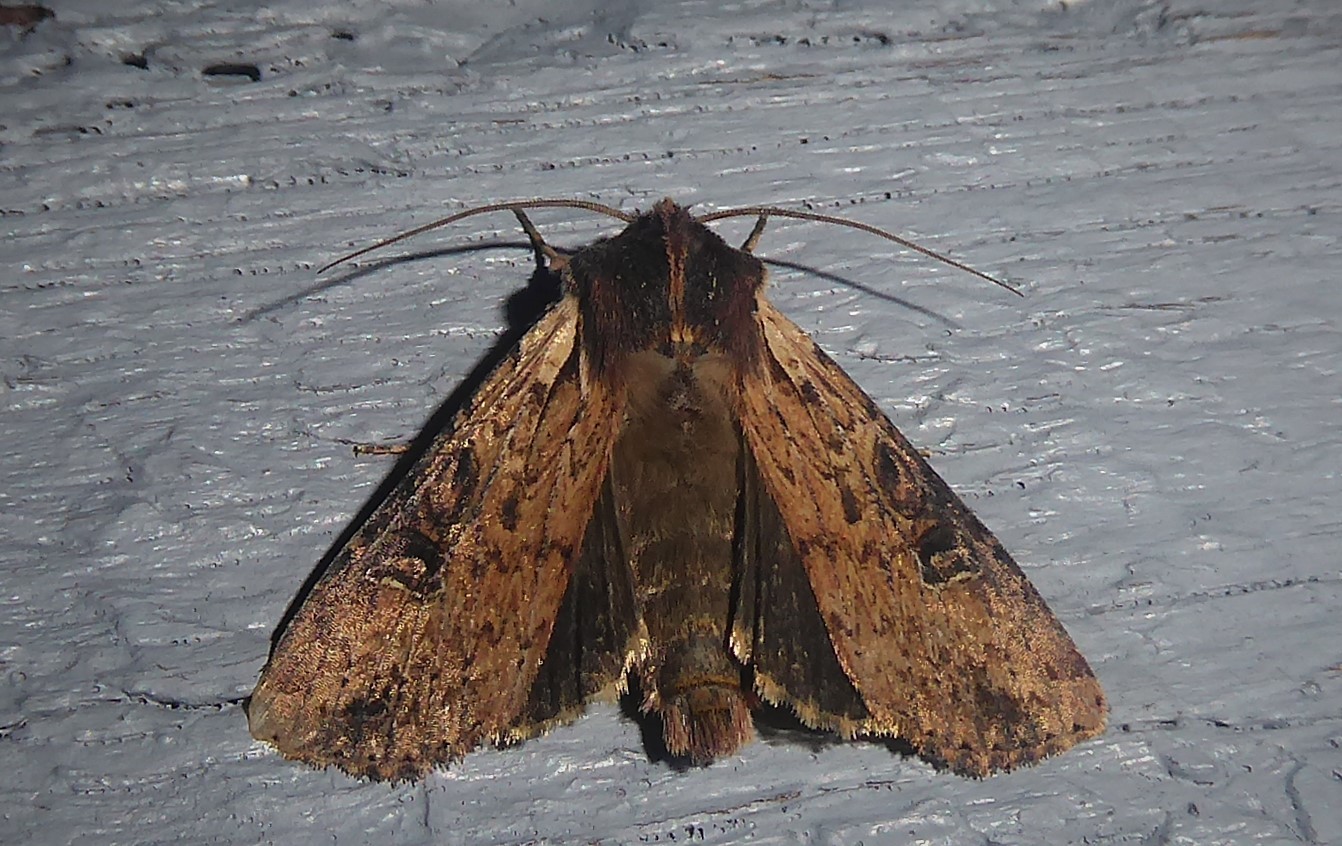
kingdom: Animalia
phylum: Arthropoda
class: Insecta
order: Lepidoptera
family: Noctuidae
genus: Ichneutica
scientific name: Ichneutica omoplaca
